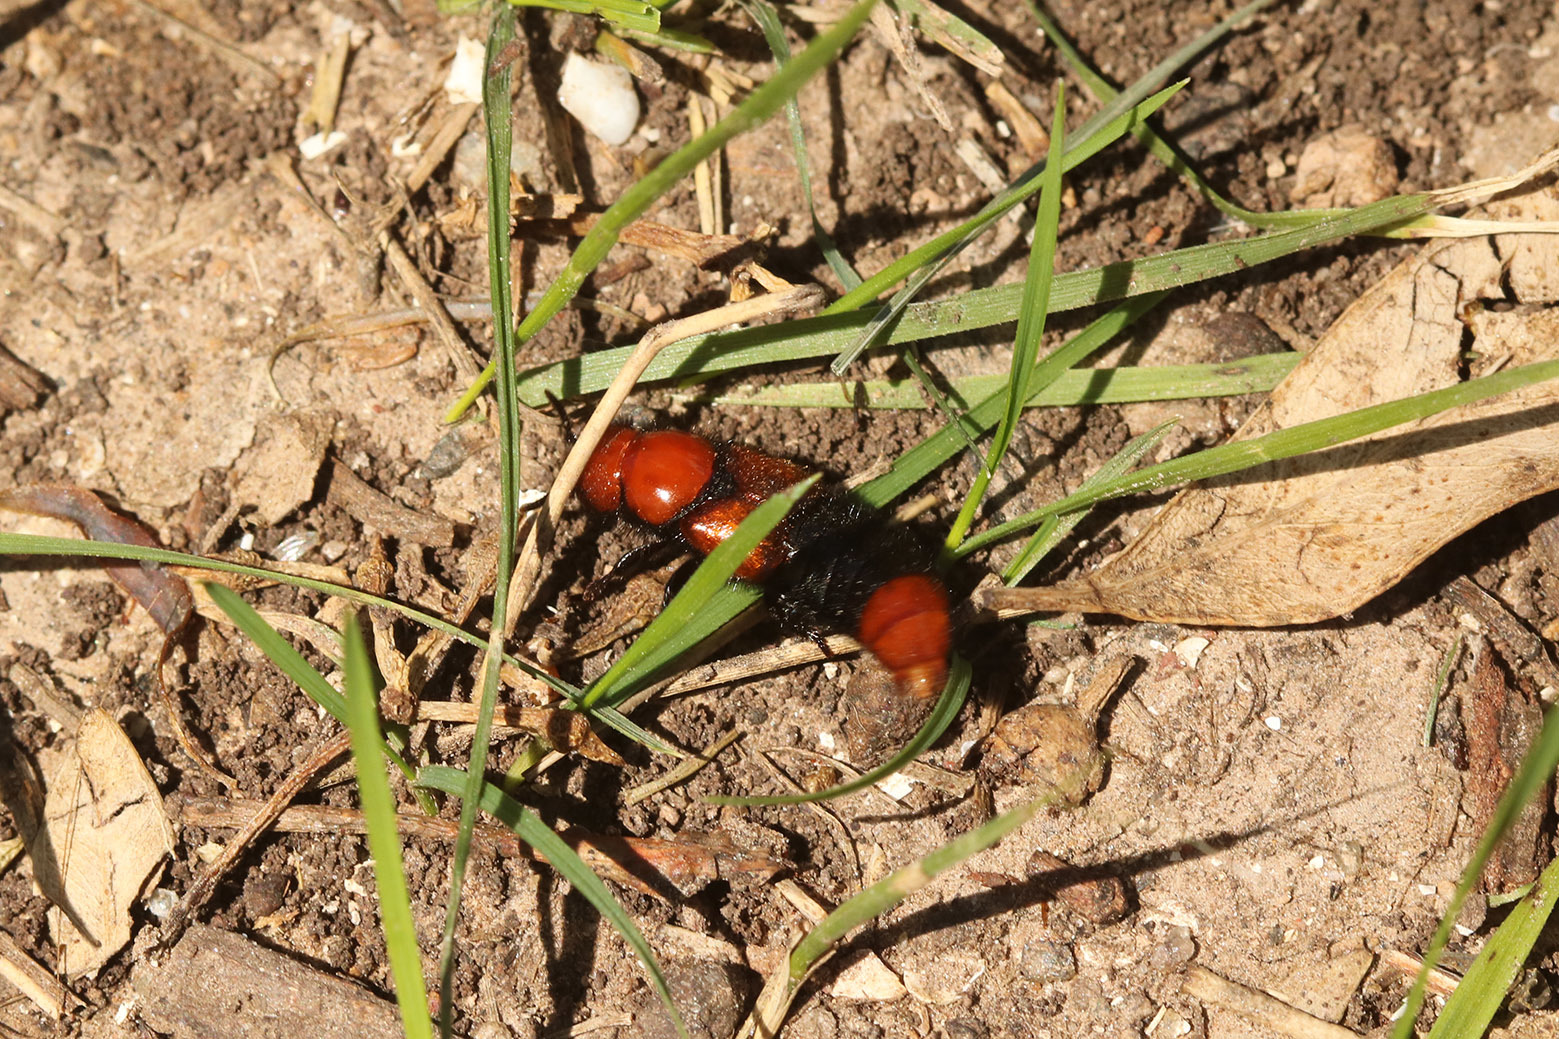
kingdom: Animalia
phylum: Arthropoda
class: Insecta
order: Coleoptera
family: Staphylinidae
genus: Haematodes
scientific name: Haematodes bicolor
